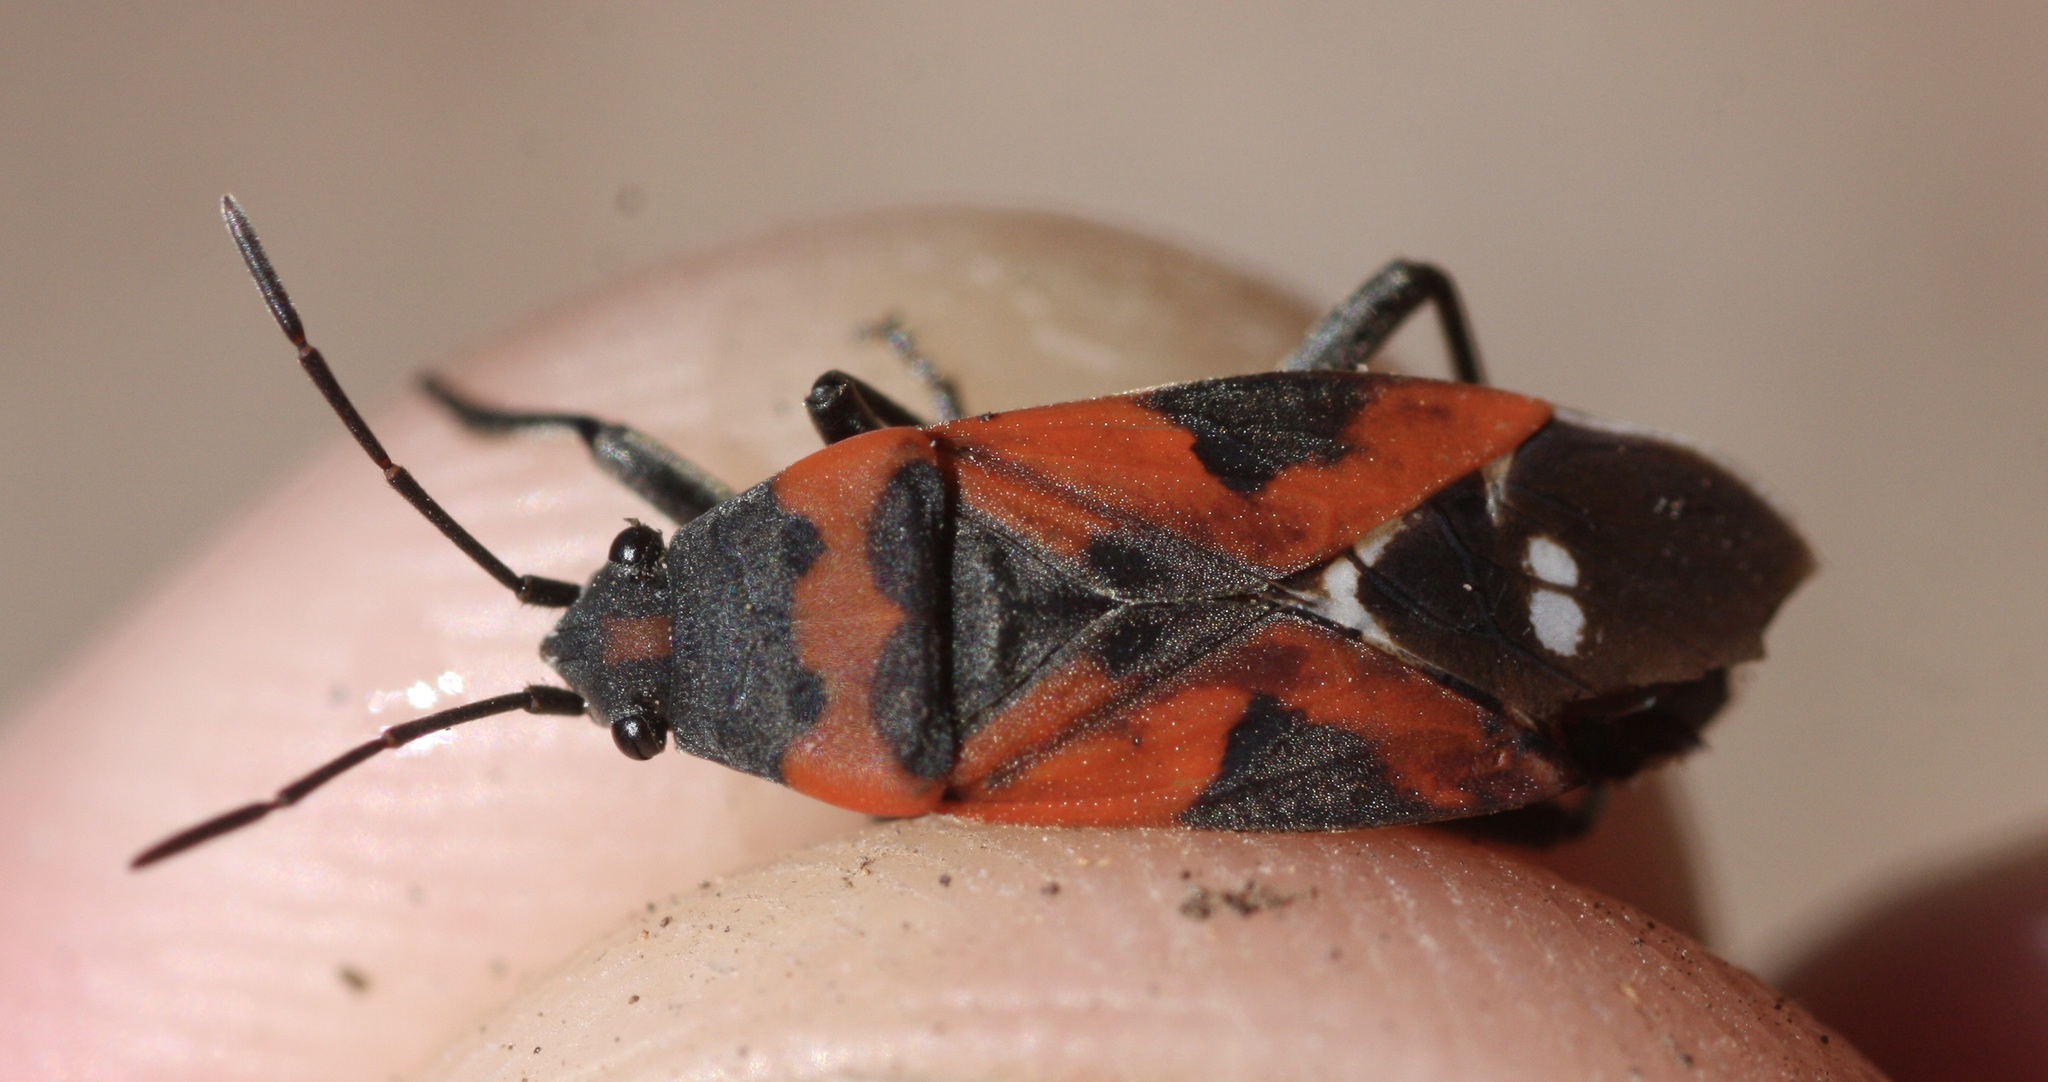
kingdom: Animalia
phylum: Arthropoda
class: Insecta
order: Hemiptera
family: Lygaeidae
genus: Lygaeus
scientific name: Lygaeus reclivatus
